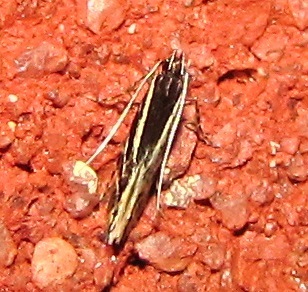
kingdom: Animalia
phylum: Arthropoda
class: Insecta
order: Lepidoptera
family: Cosmopterigidae
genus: Eralea
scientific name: Eralea albalineella
